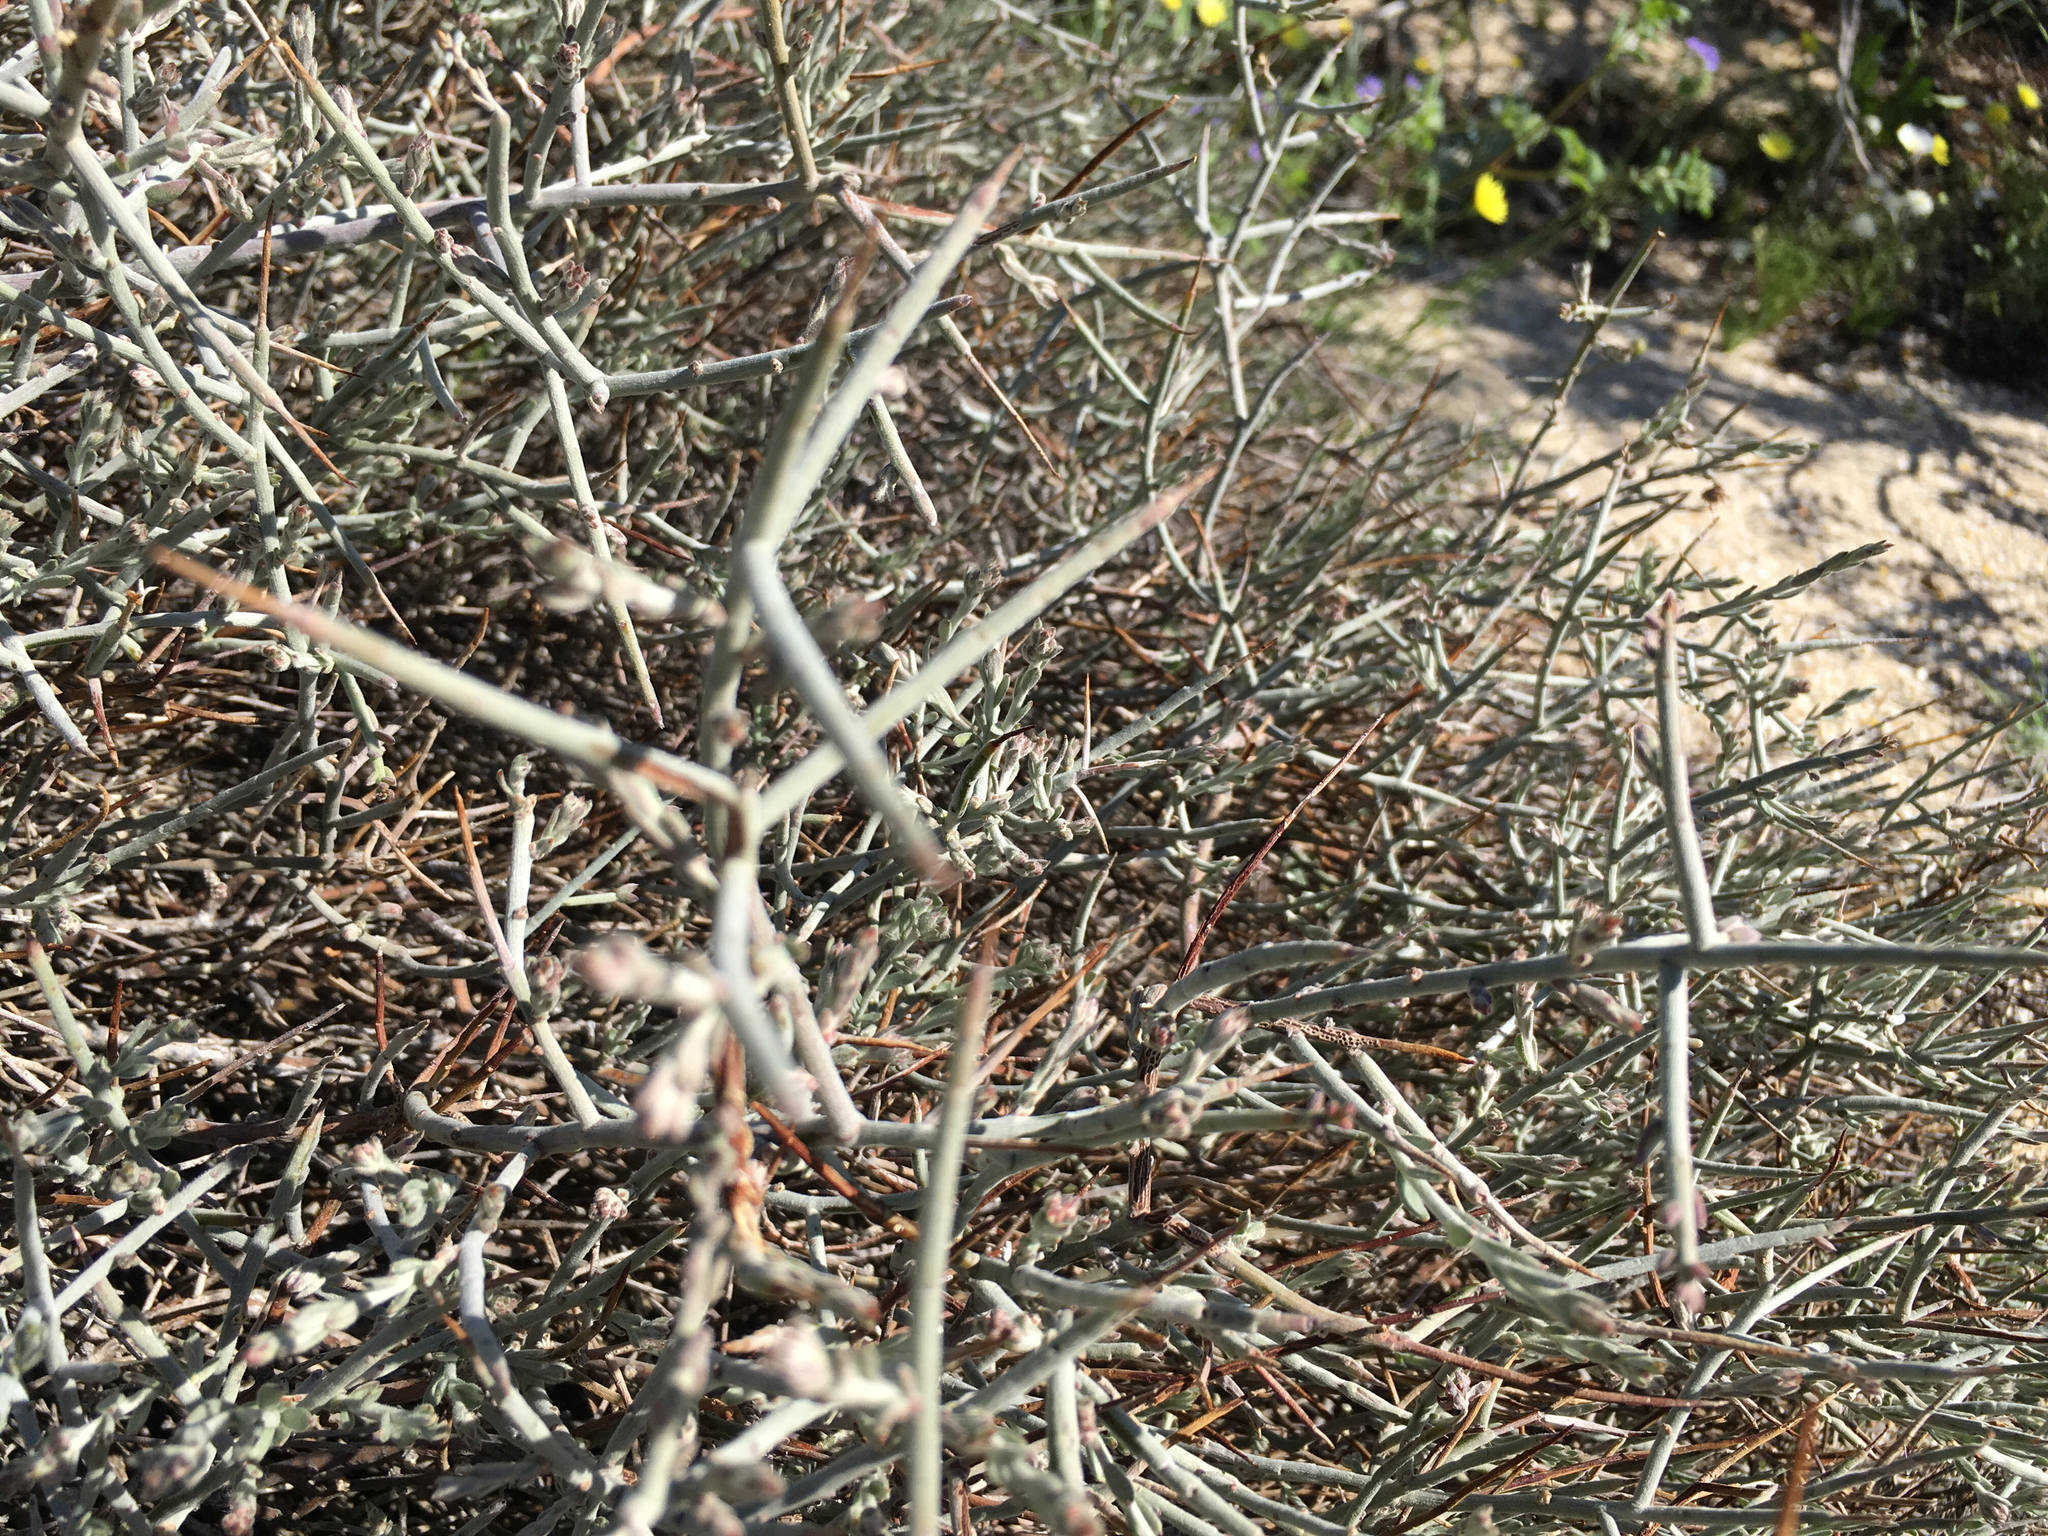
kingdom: Plantae
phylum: Tracheophyta
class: Magnoliopsida
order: Zygophyllales
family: Krameriaceae
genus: Krameria
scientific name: Krameria bicolor
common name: White ratany
